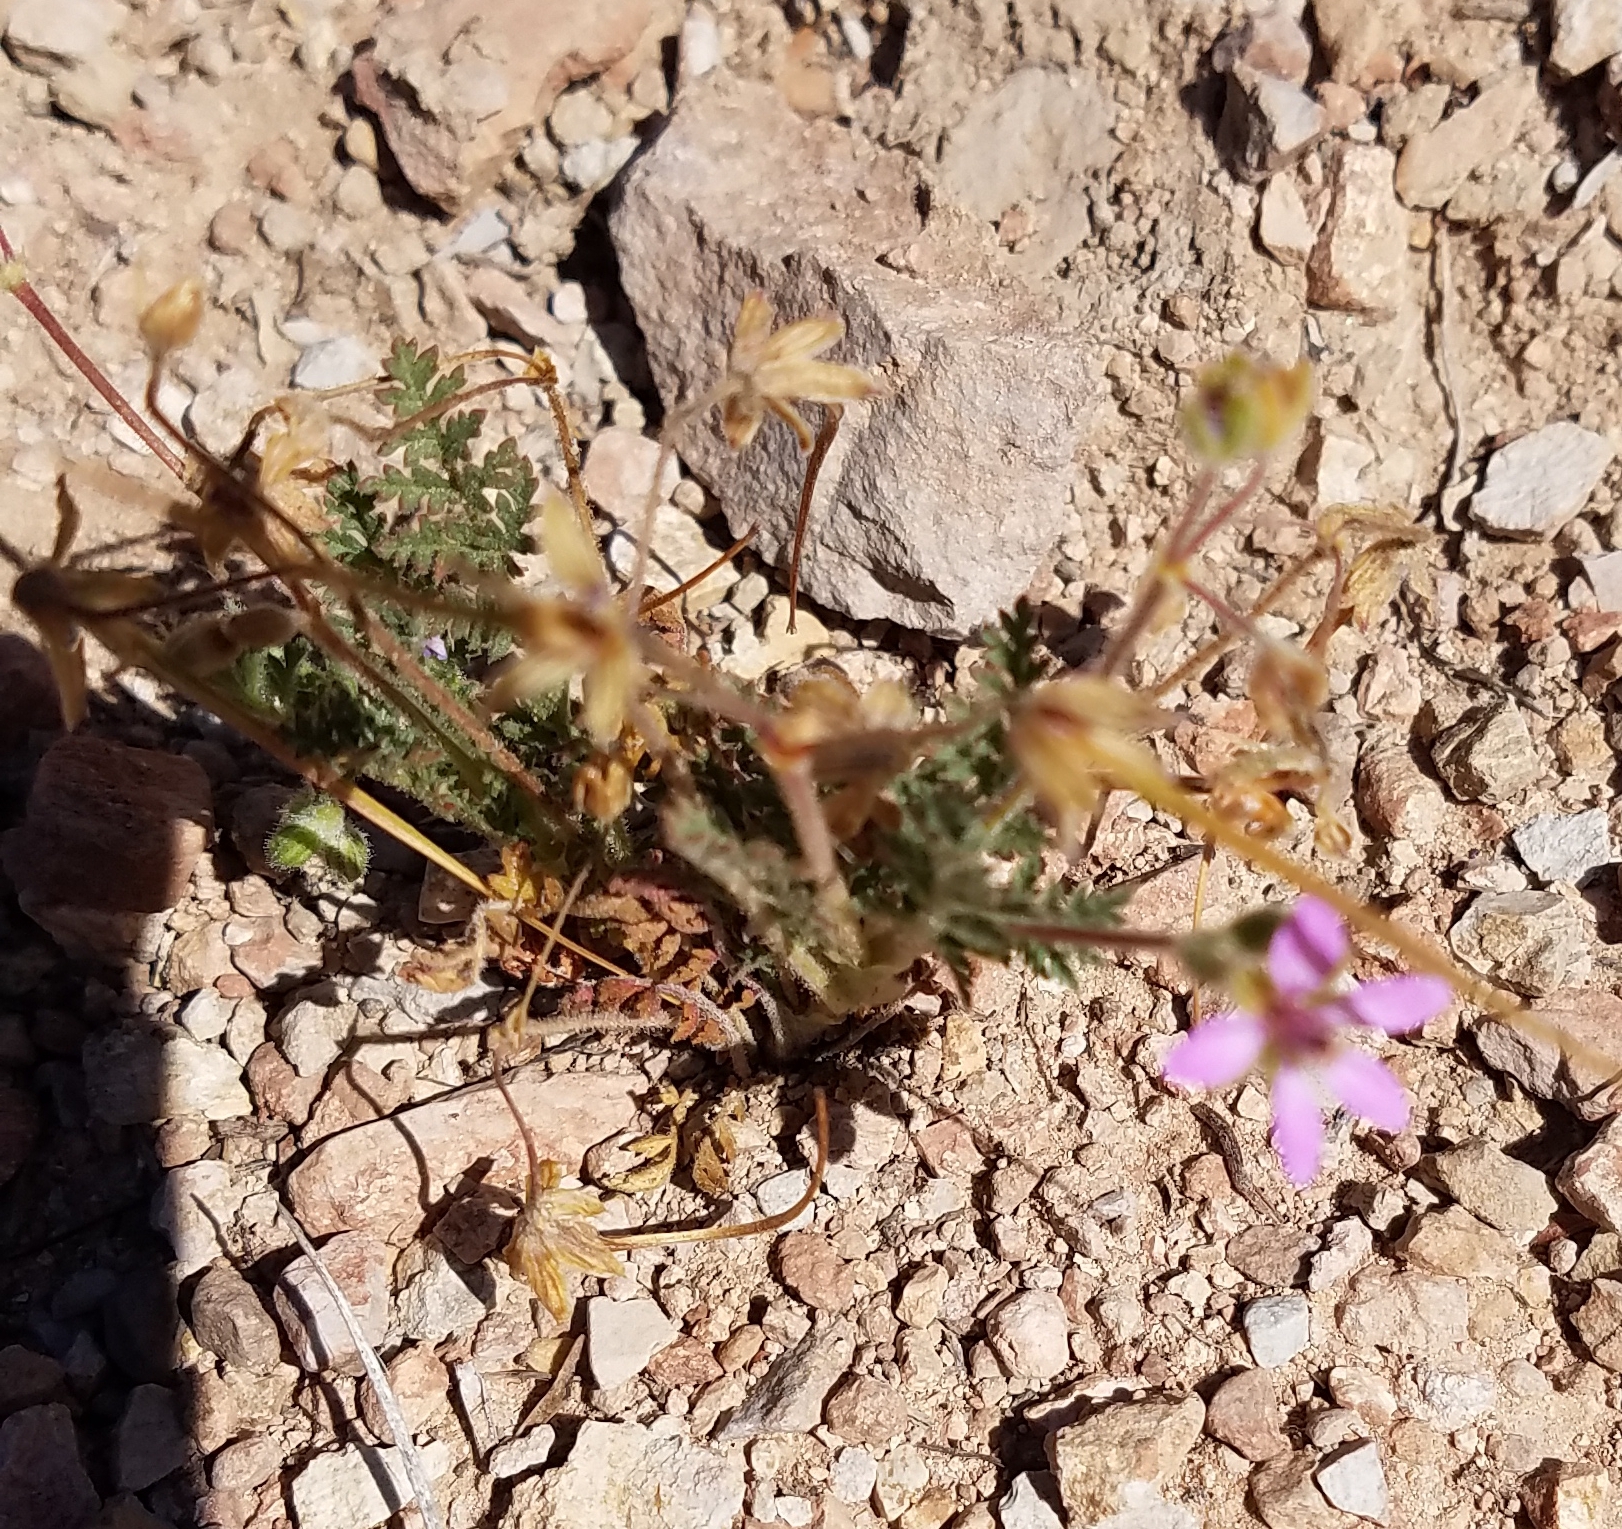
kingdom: Plantae
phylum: Tracheophyta
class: Magnoliopsida
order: Geraniales
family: Geraniaceae
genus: Erodium
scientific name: Erodium cicutarium
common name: Common stork's-bill
